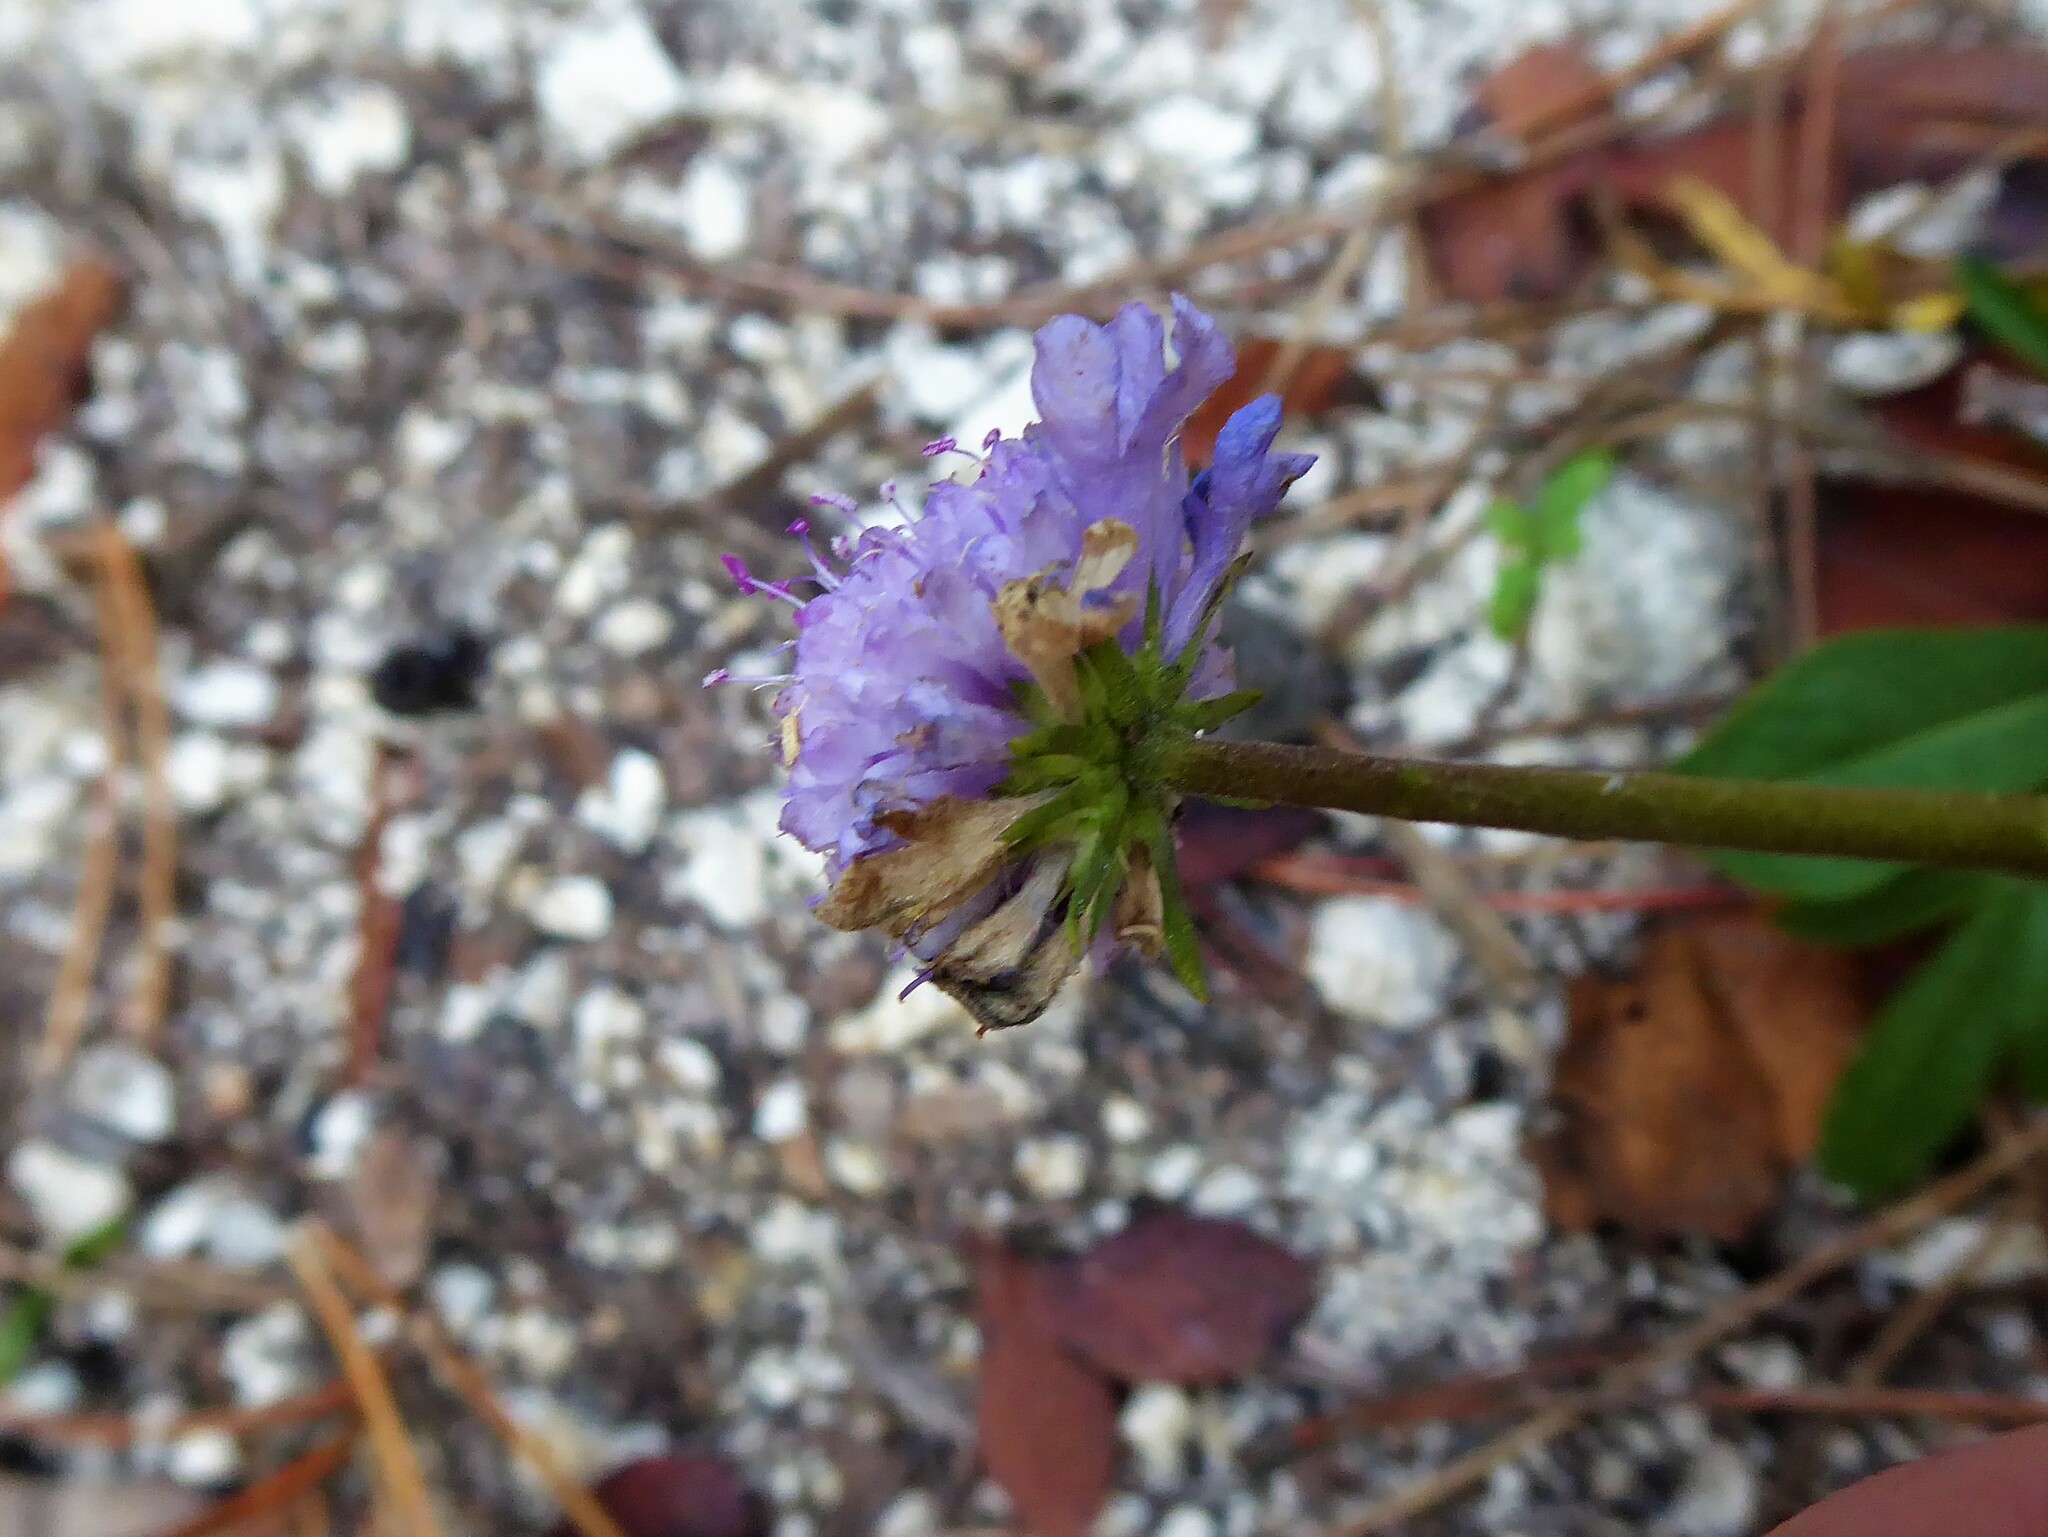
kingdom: Plantae
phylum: Tracheophyta
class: Magnoliopsida
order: Dipsacales
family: Caprifoliaceae
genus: Scabiosa
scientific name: Scabiosa canescens
